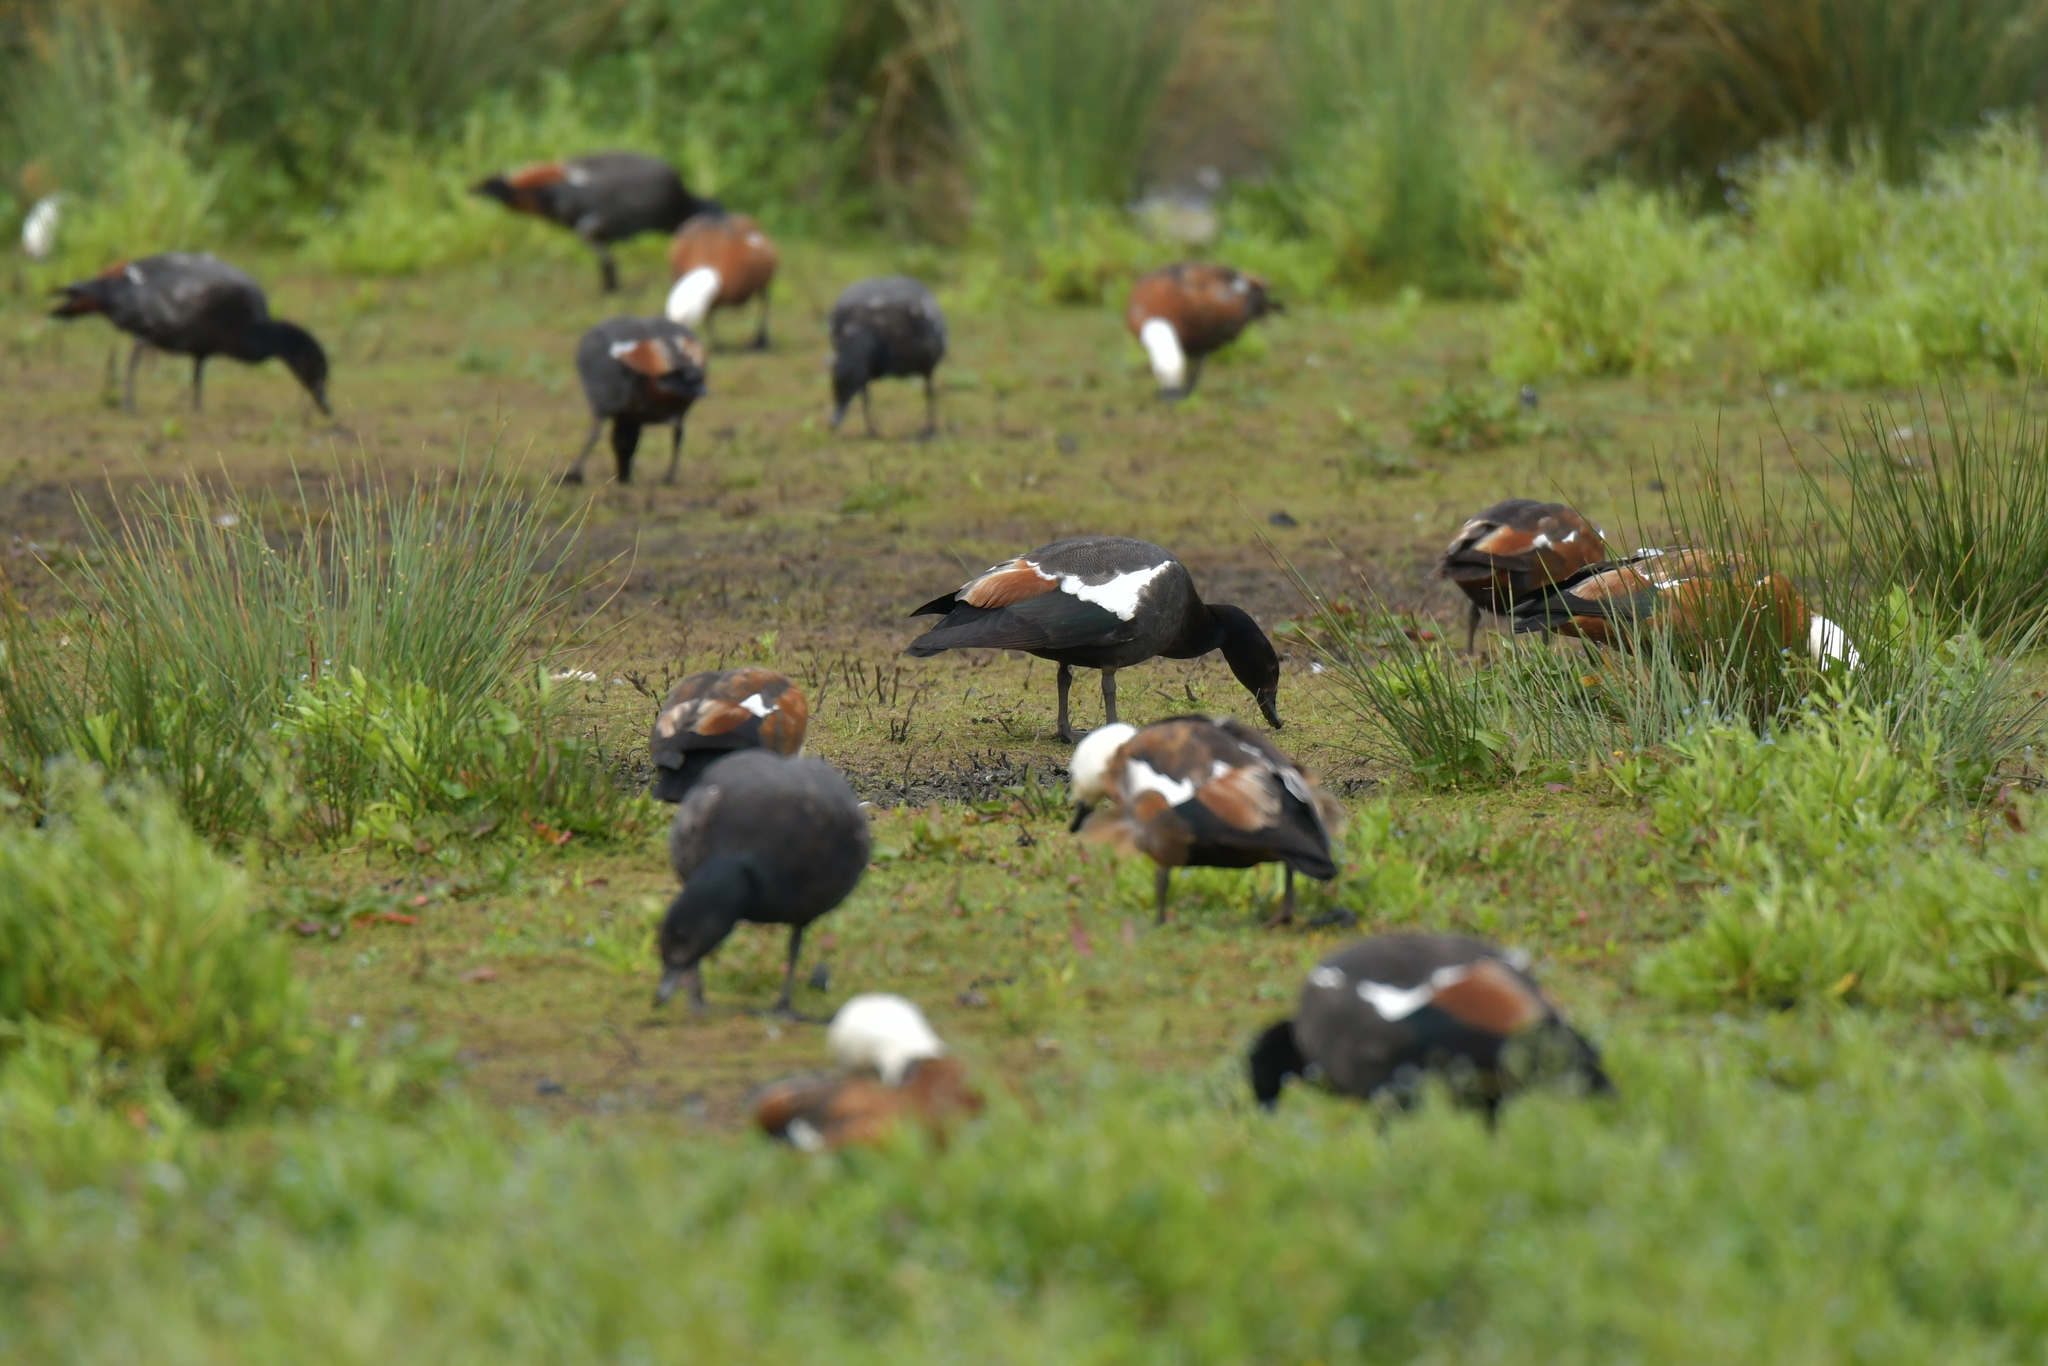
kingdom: Animalia
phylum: Chordata
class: Aves
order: Anseriformes
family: Anatidae
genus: Tadorna
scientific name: Tadorna variegata
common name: Paradise shelduck
